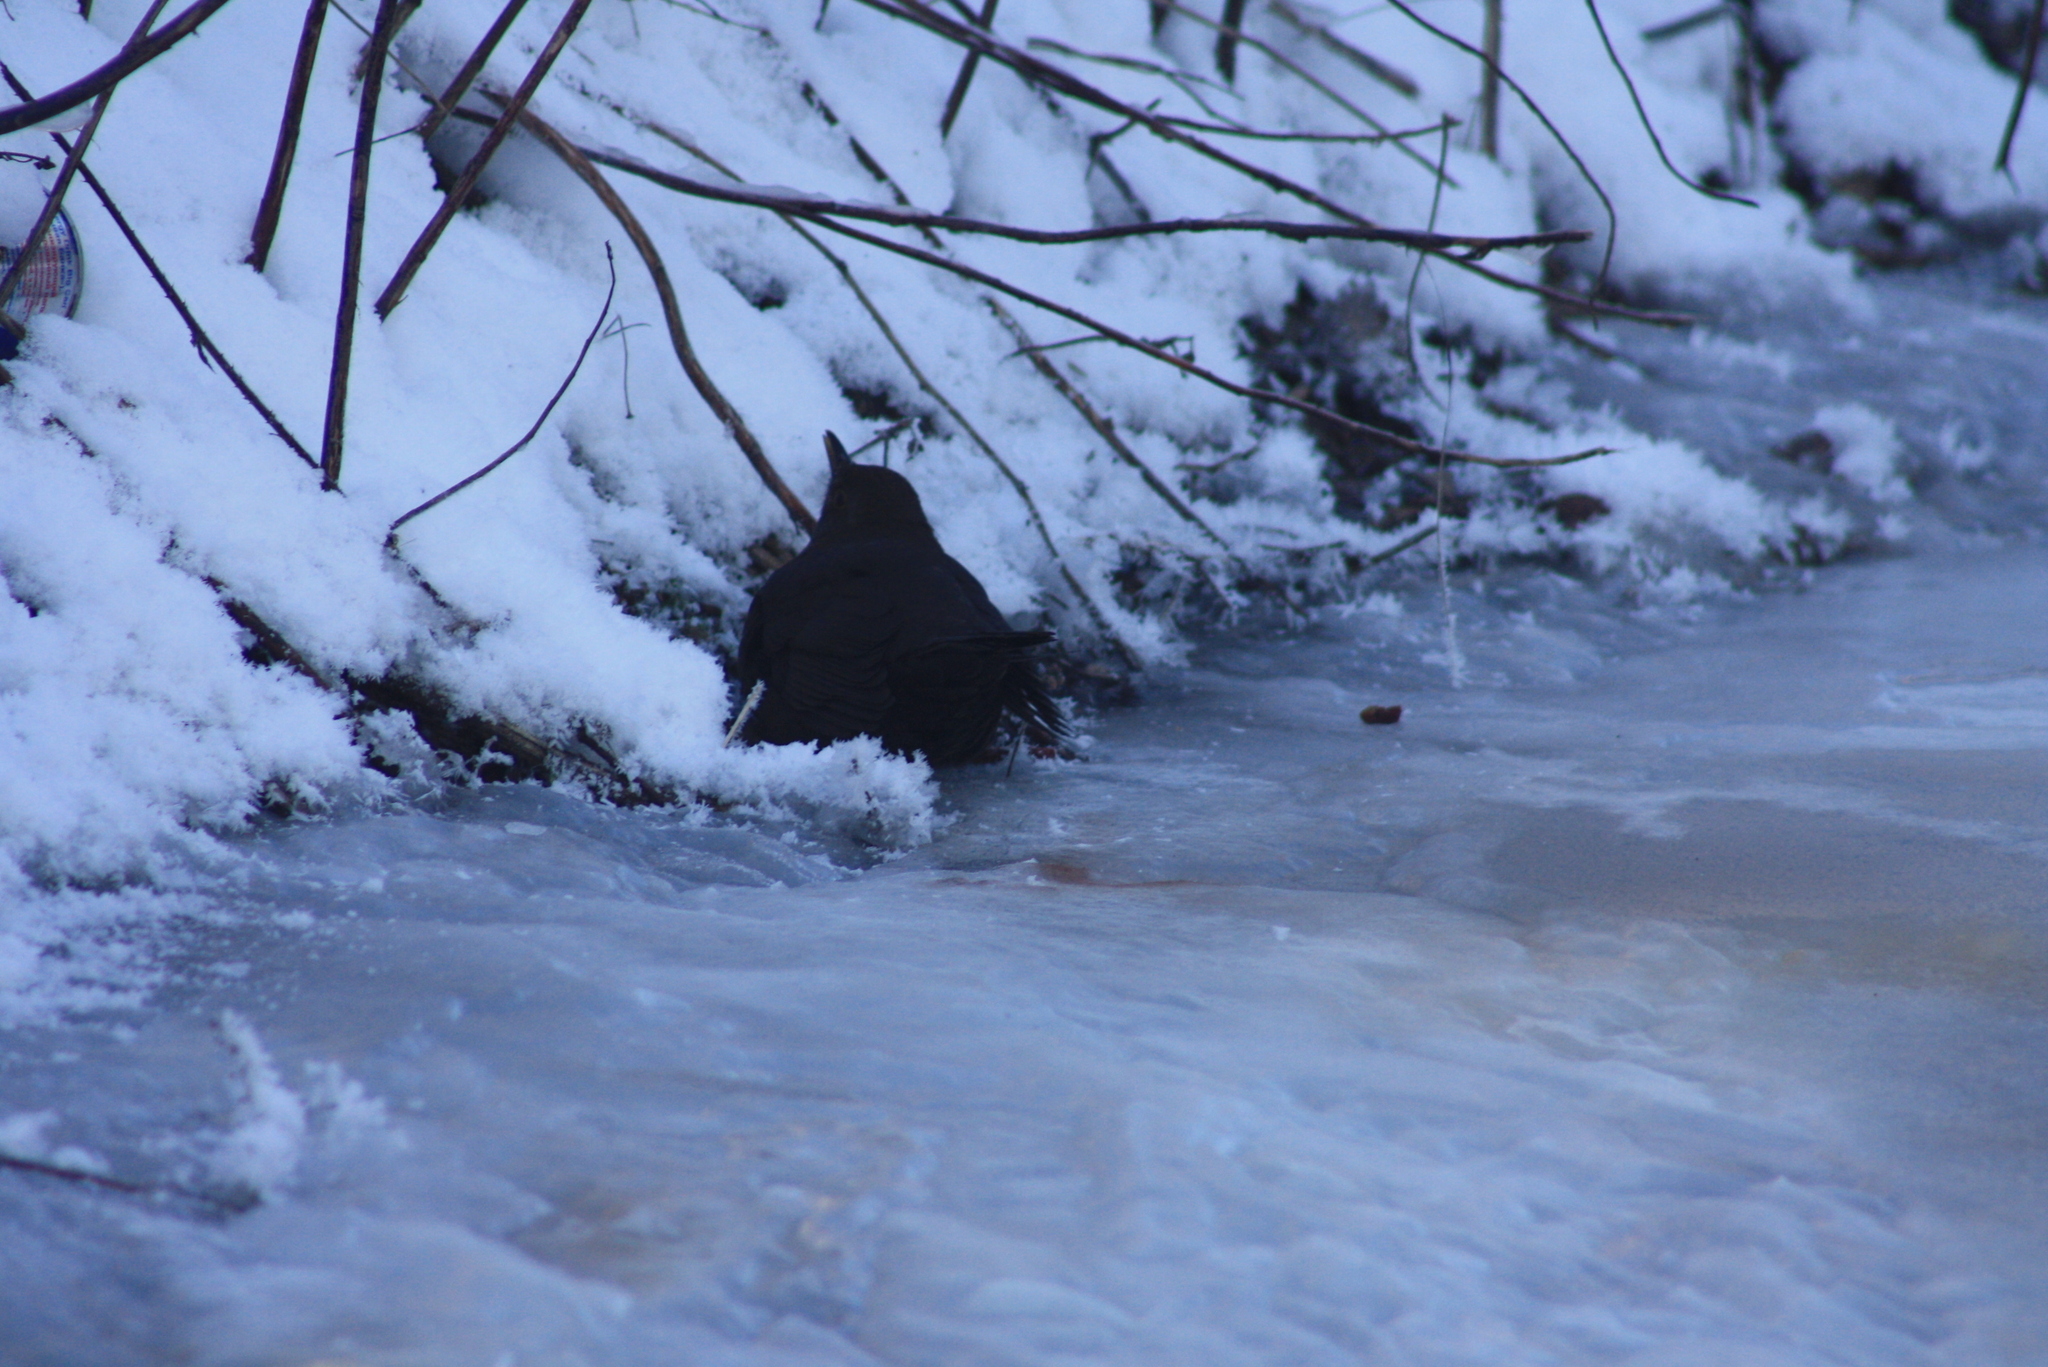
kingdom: Animalia
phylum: Chordata
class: Aves
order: Passeriformes
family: Turdidae
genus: Turdus
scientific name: Turdus merula
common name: Common blackbird
